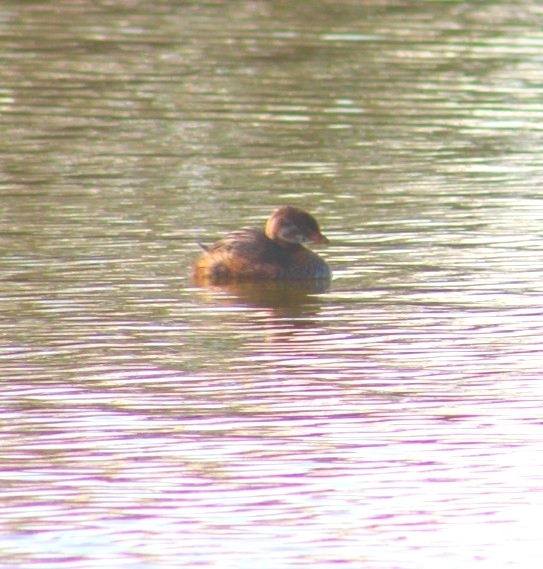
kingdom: Animalia
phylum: Chordata
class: Aves
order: Podicipediformes
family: Podicipedidae
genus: Podilymbus
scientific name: Podilymbus podiceps
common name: Pied-billed grebe
